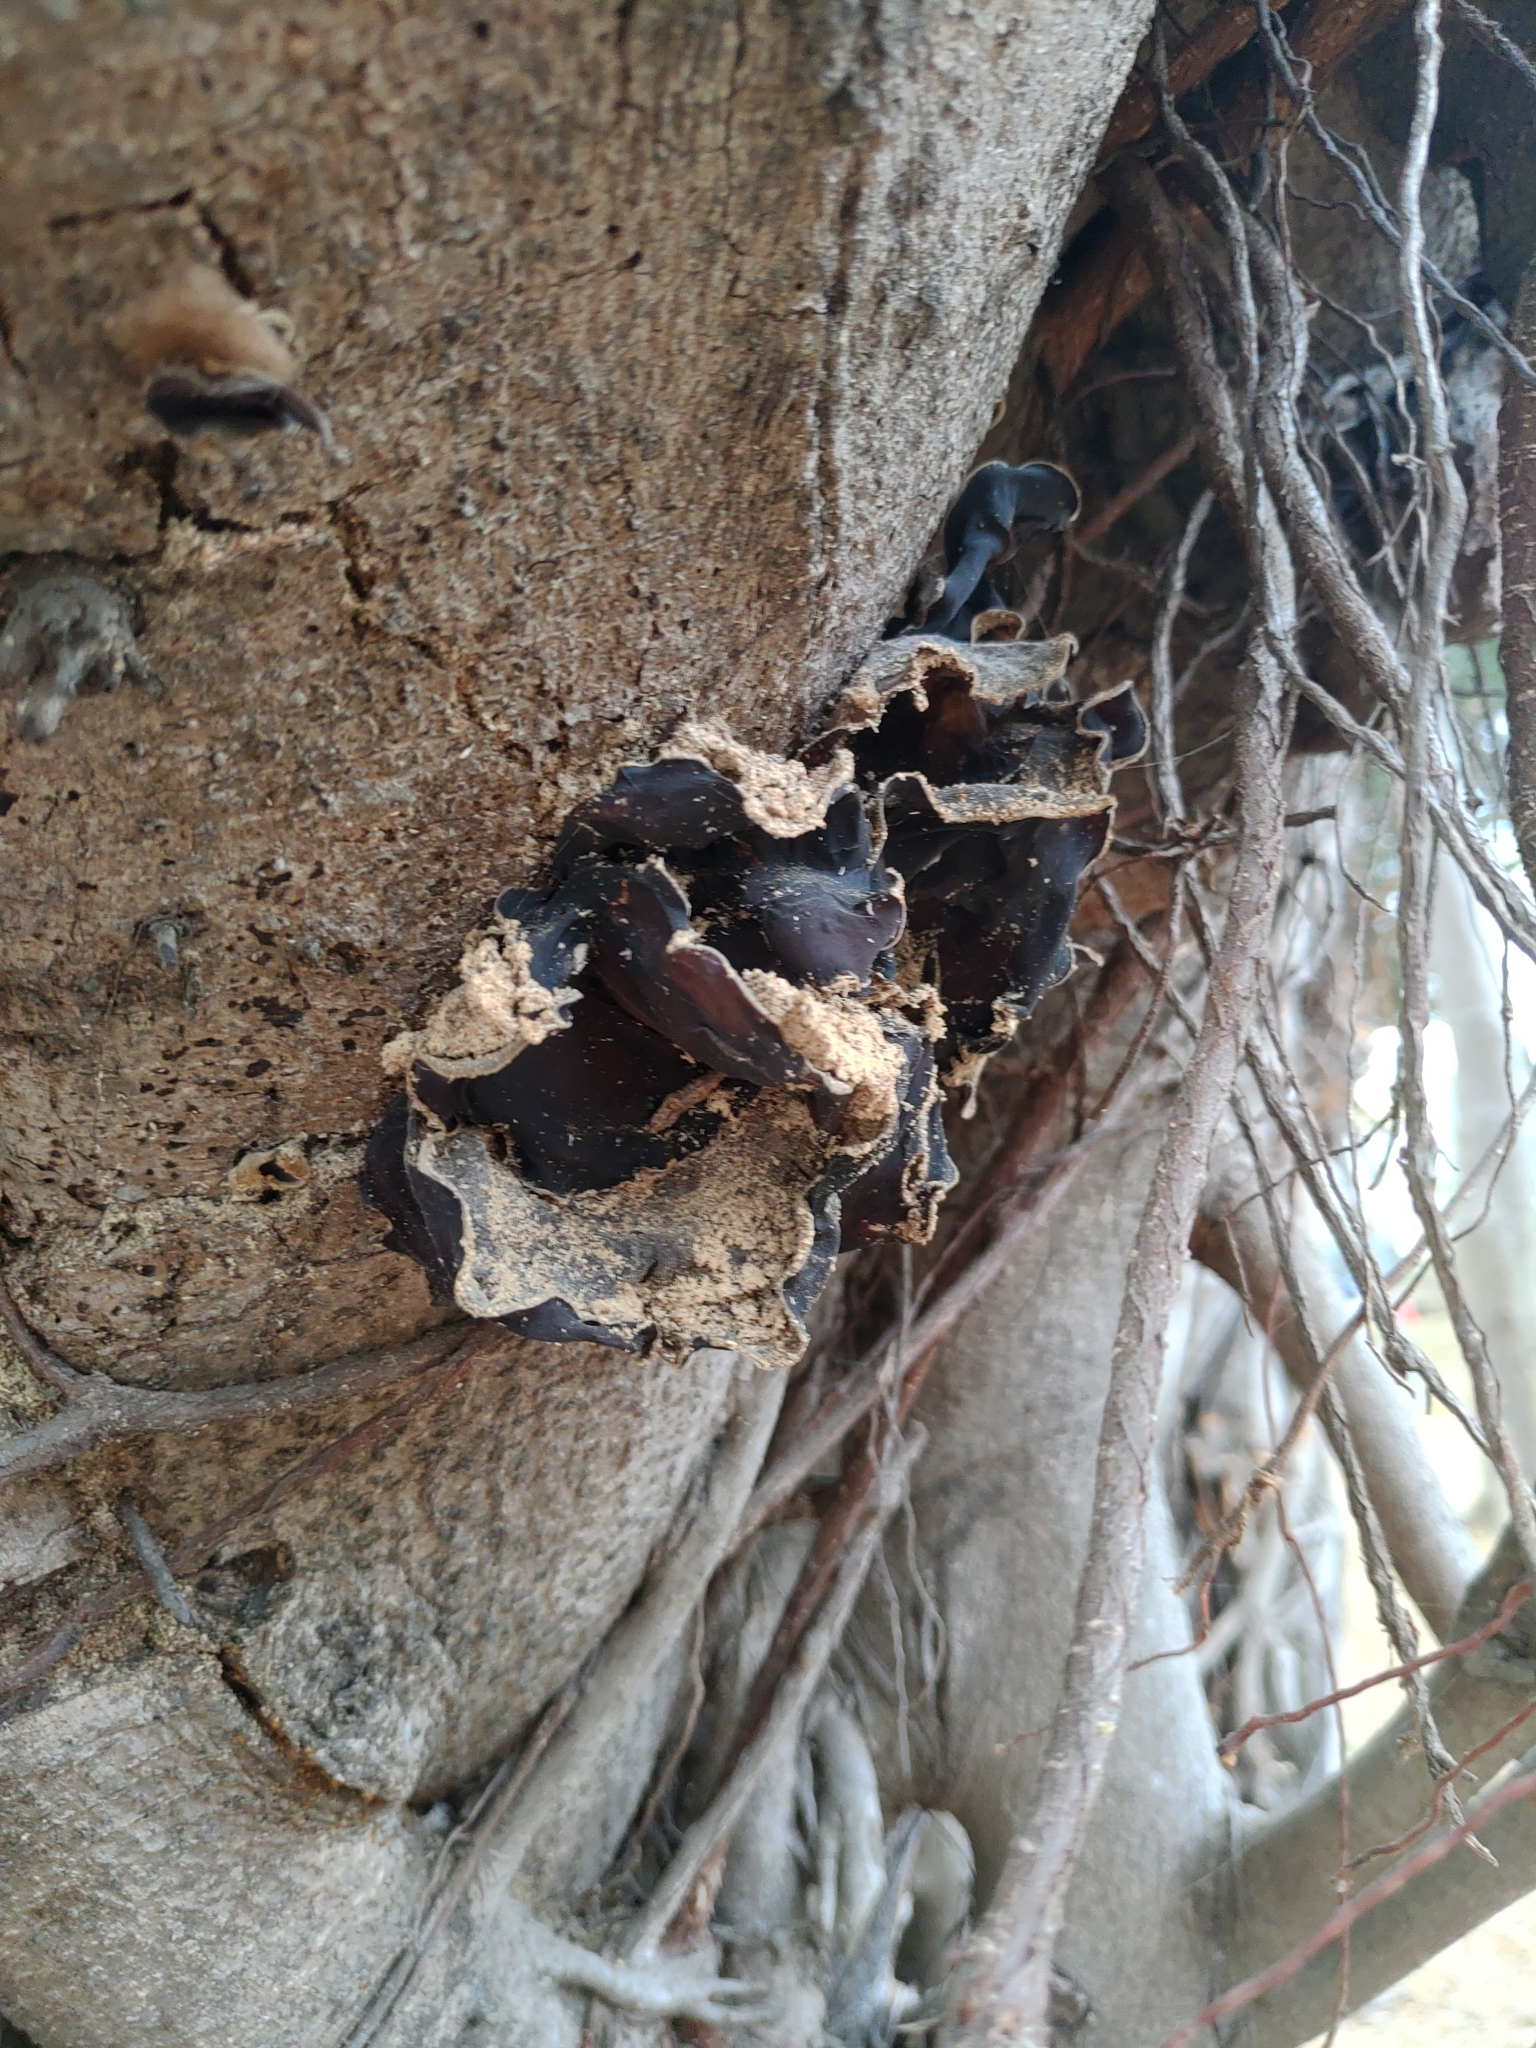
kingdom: Fungi
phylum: Basidiomycota
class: Agaricomycetes
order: Auriculariales
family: Auriculariaceae
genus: Auricularia
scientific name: Auricularia nigricans
